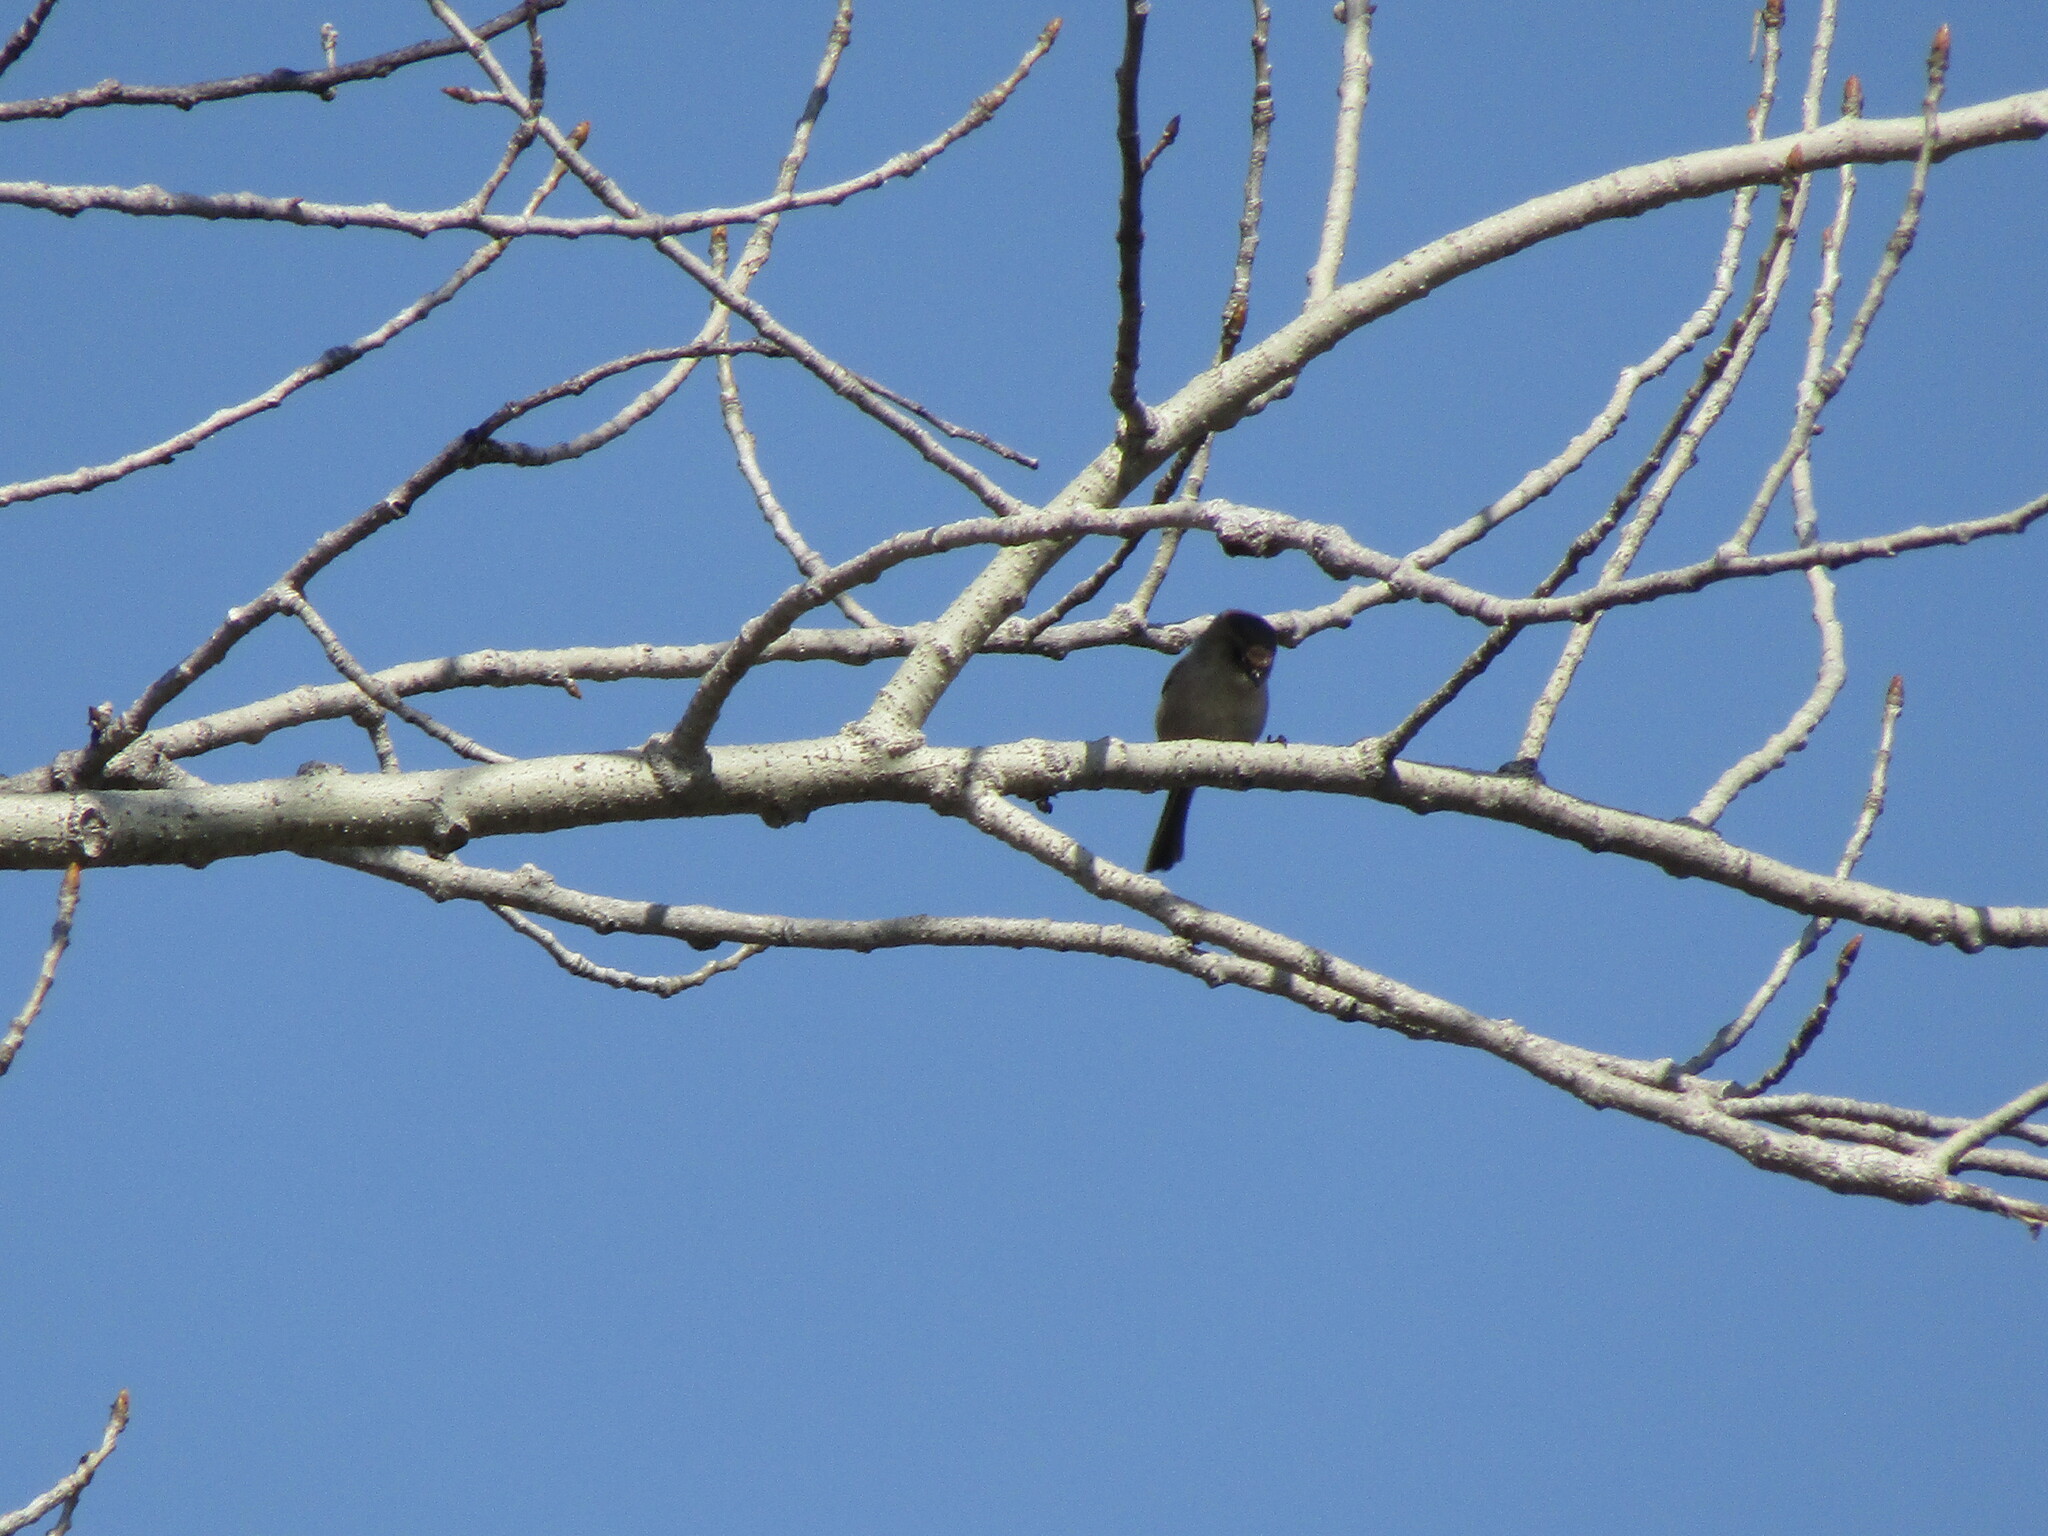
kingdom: Animalia
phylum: Chordata
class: Aves
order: Passeriformes
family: Aegithalidae
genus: Psaltriparus
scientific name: Psaltriparus minimus
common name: American bushtit
